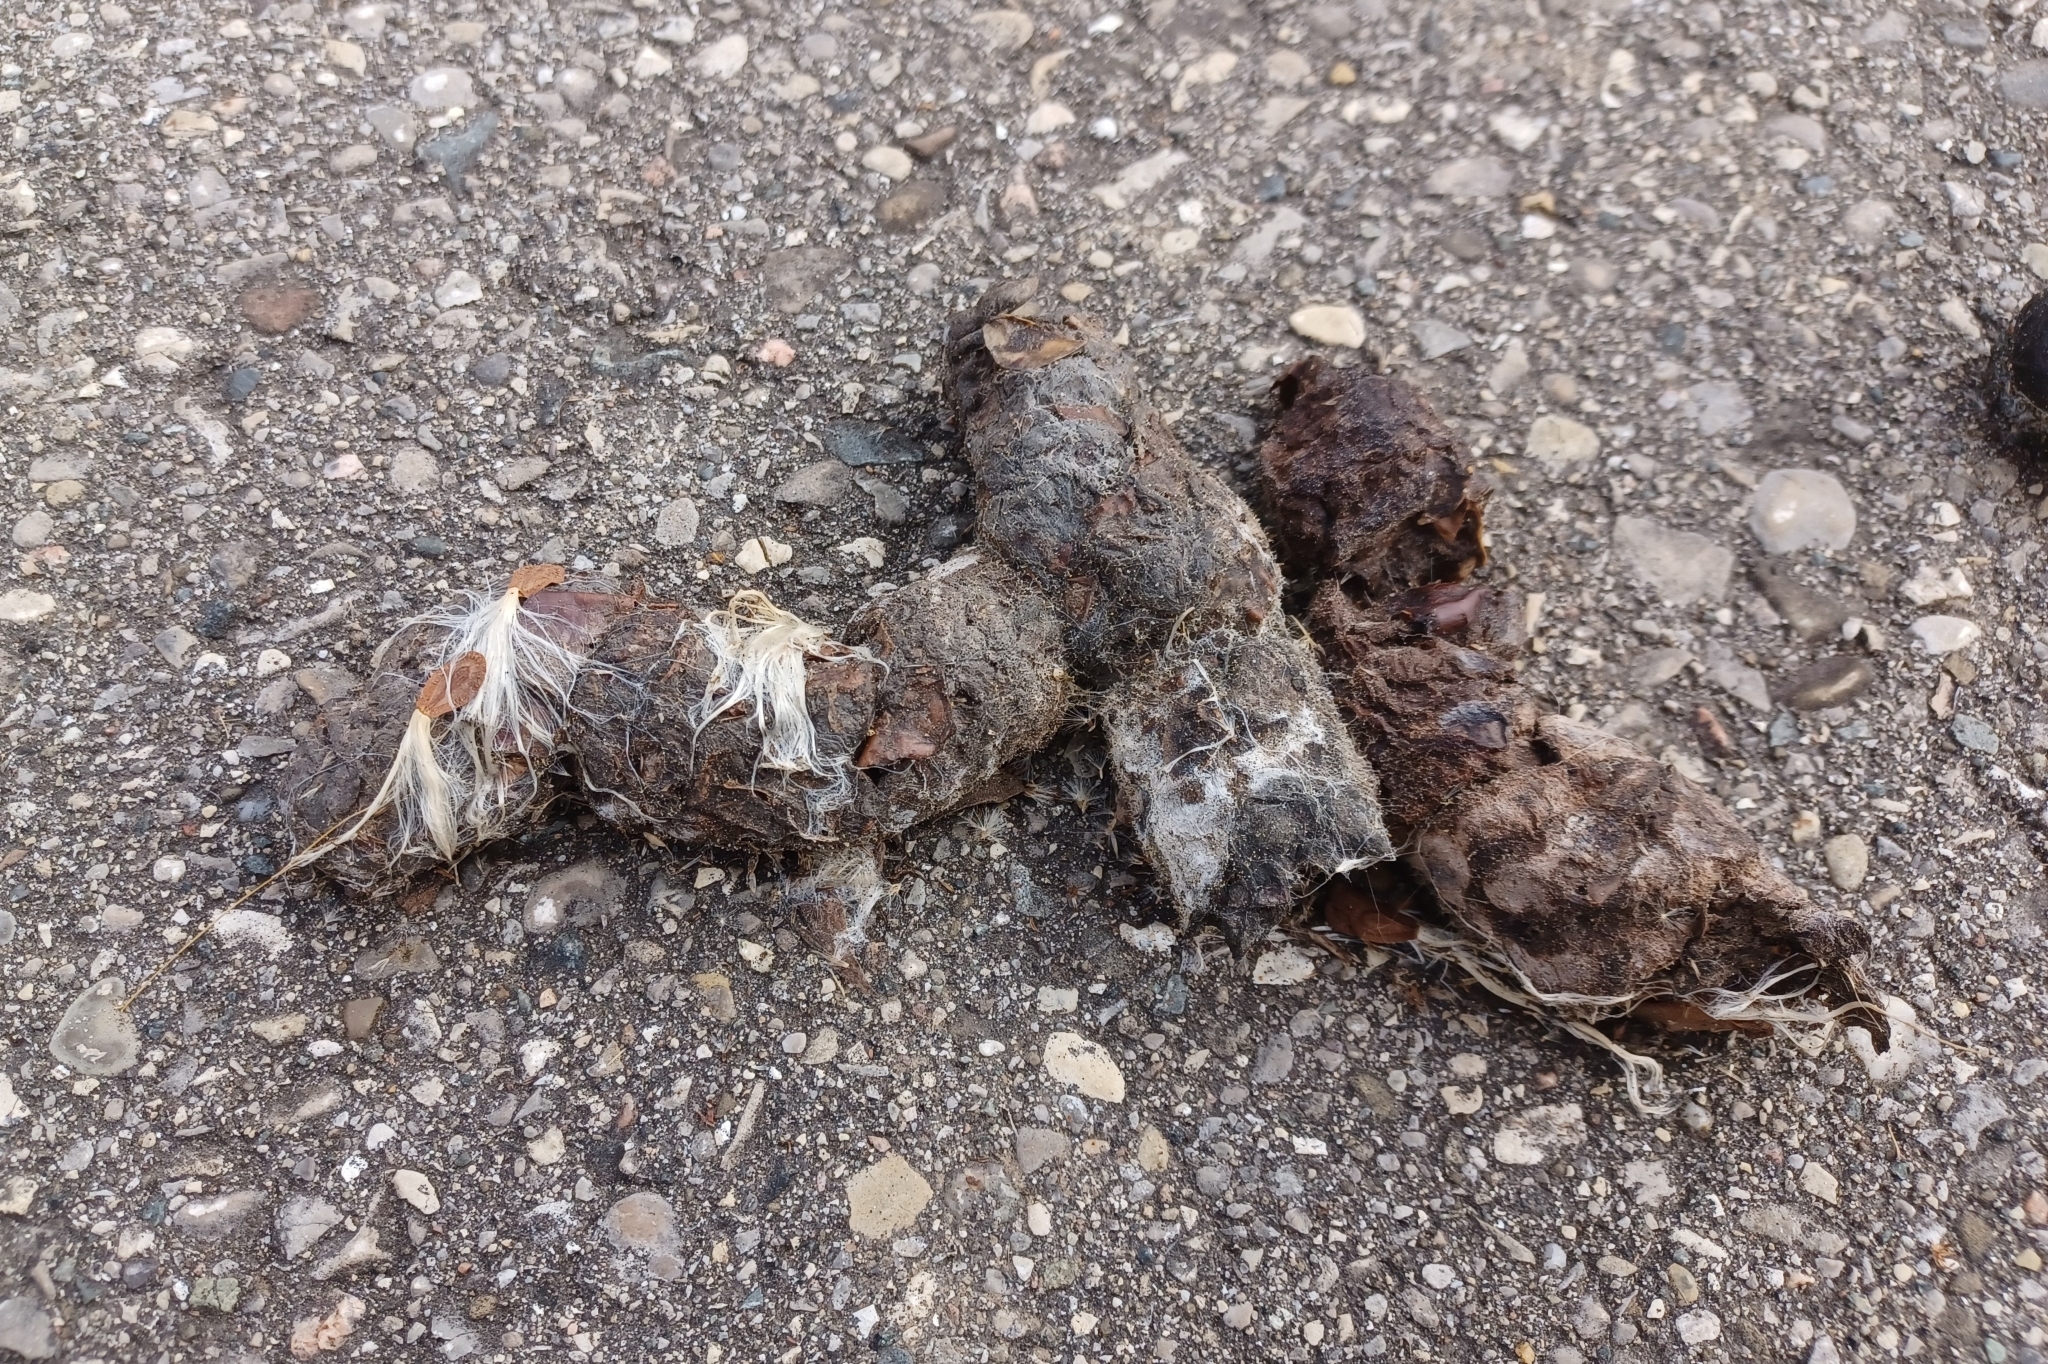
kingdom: Animalia
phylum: Chordata
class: Mammalia
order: Carnivora
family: Canidae
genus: Canis
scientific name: Canis latrans
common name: Coyote
